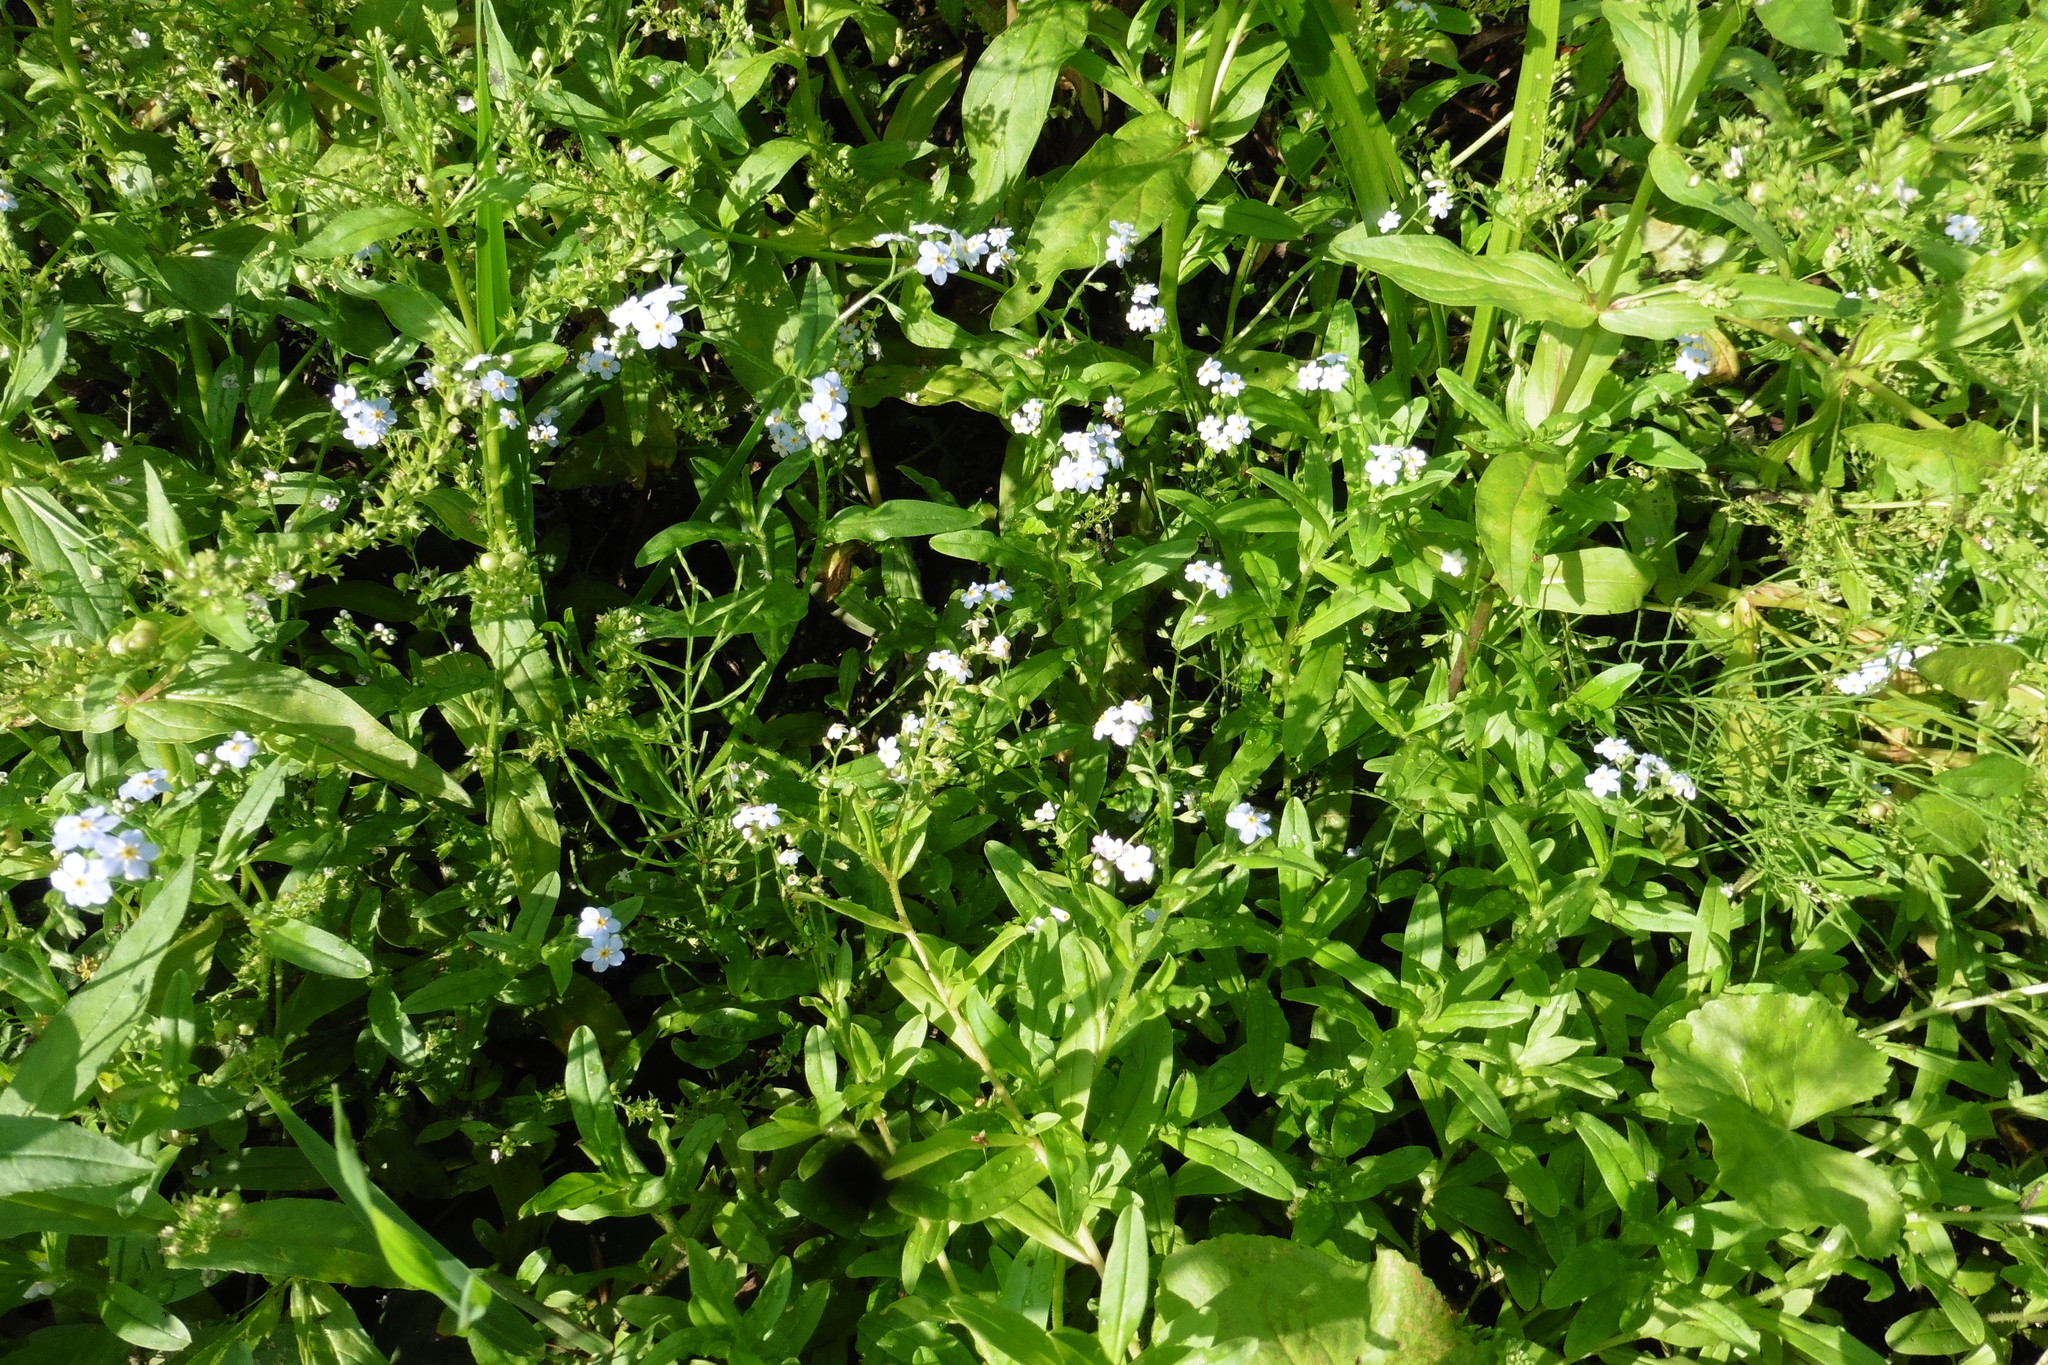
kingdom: Plantae
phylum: Tracheophyta
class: Magnoliopsida
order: Boraginales
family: Boraginaceae
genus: Myosotis
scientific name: Myosotis scorpioides
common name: Water forget-me-not
